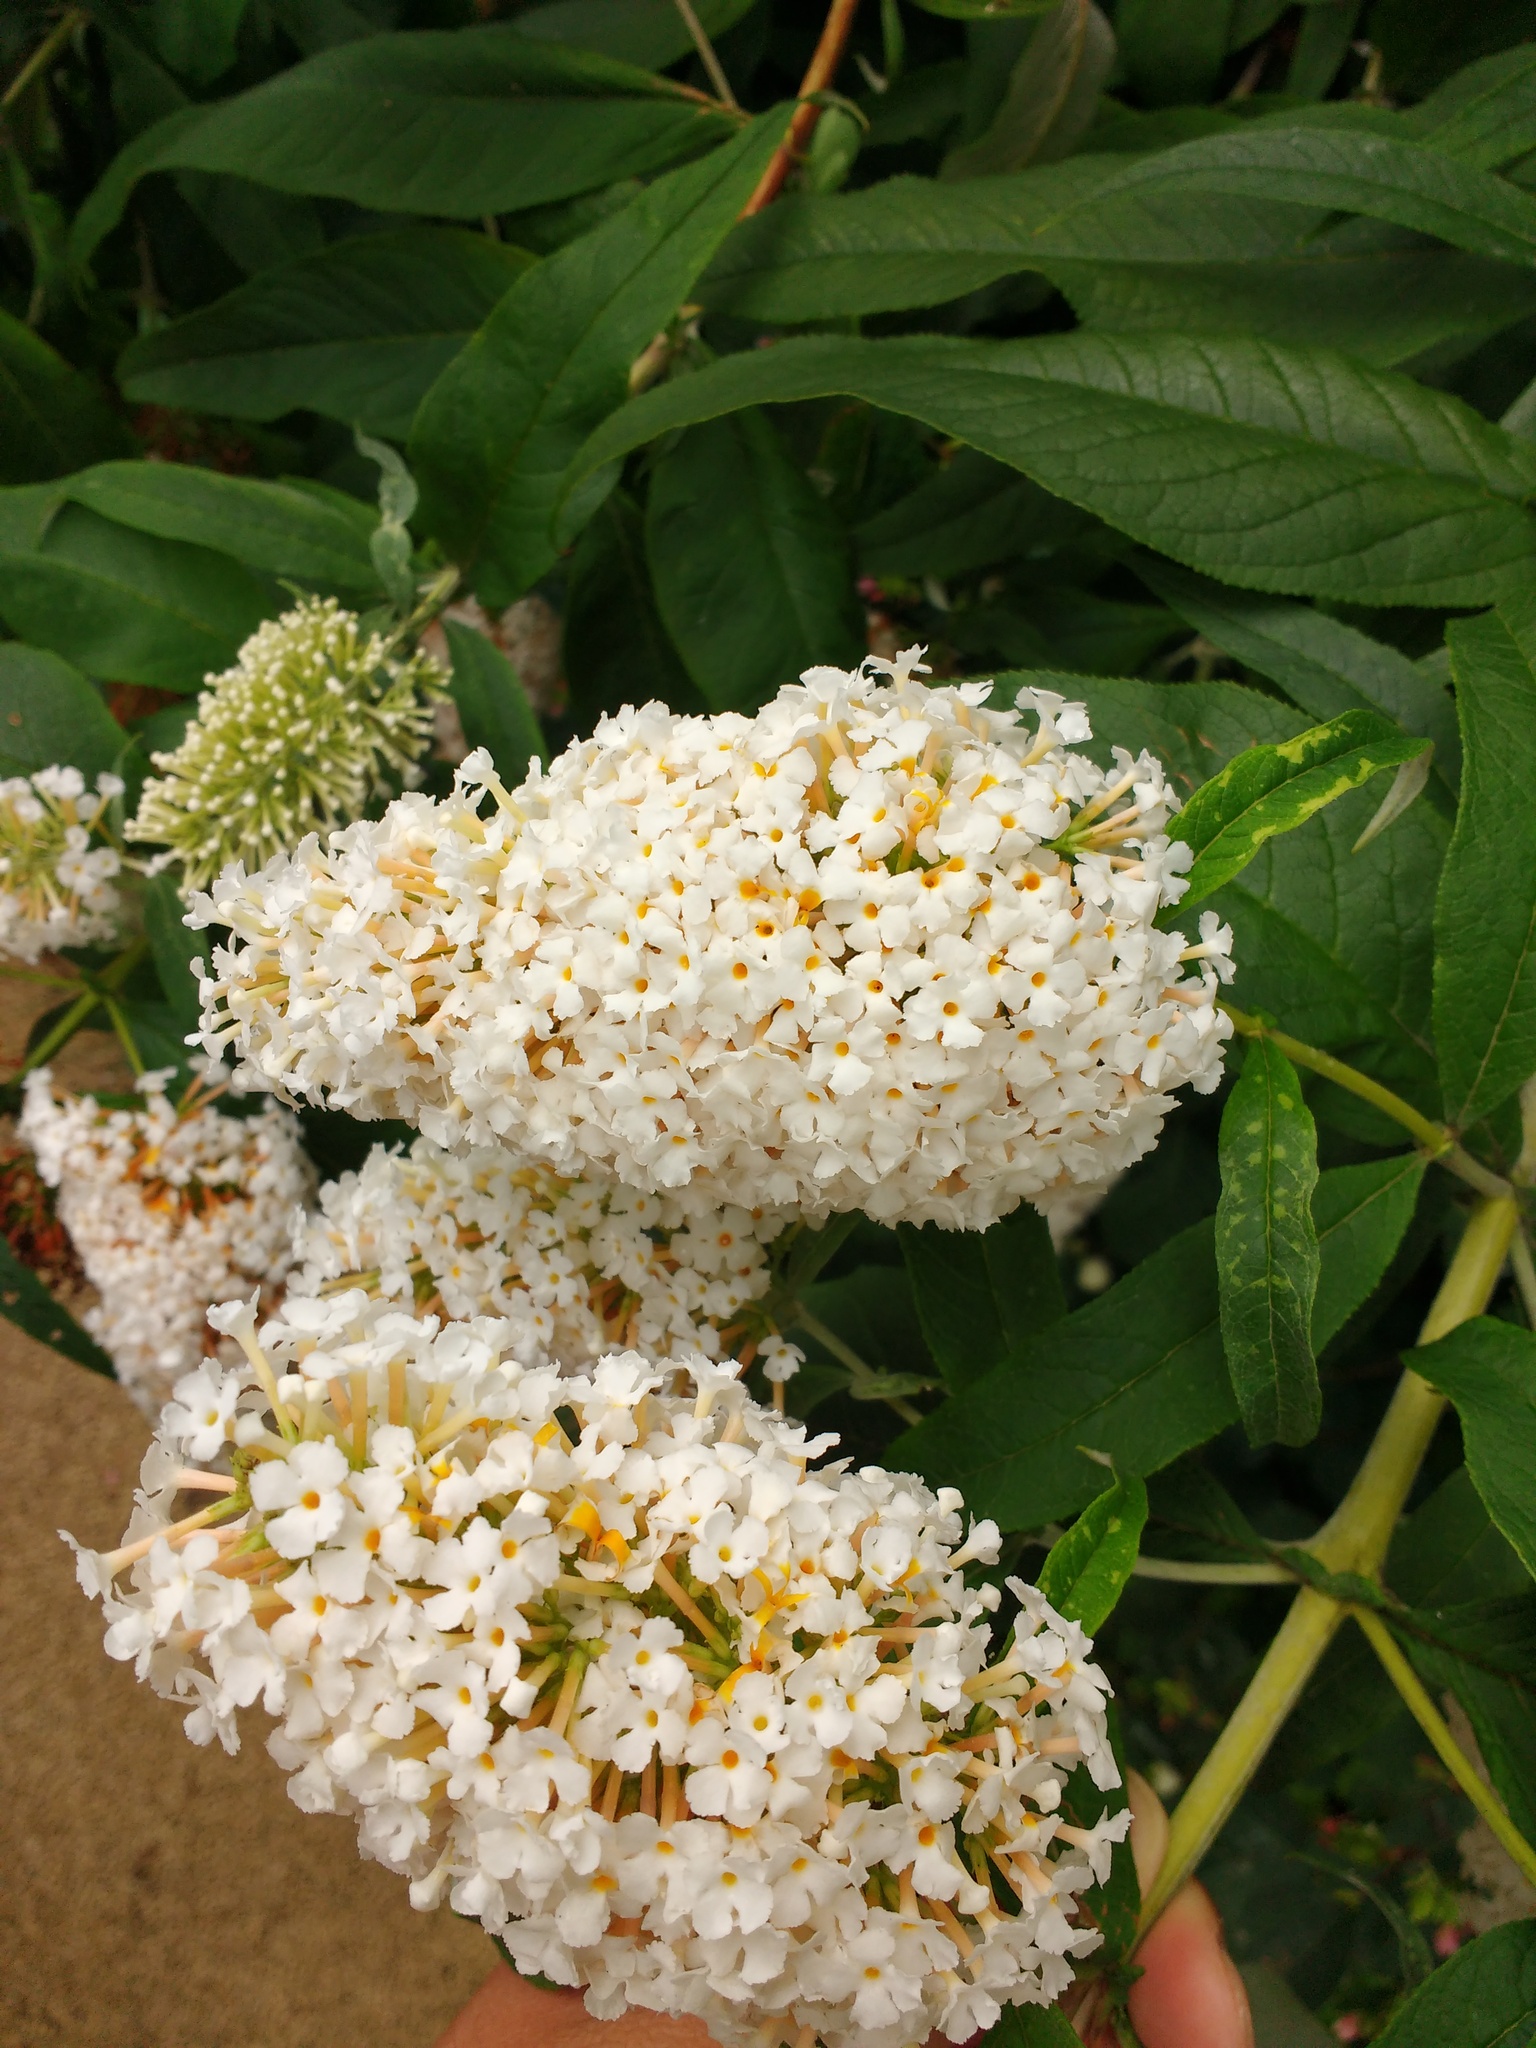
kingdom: Plantae
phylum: Tracheophyta
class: Magnoliopsida
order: Lamiales
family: Scrophulariaceae
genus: Buddleja
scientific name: Buddleja davidii
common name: Butterfly-bush
